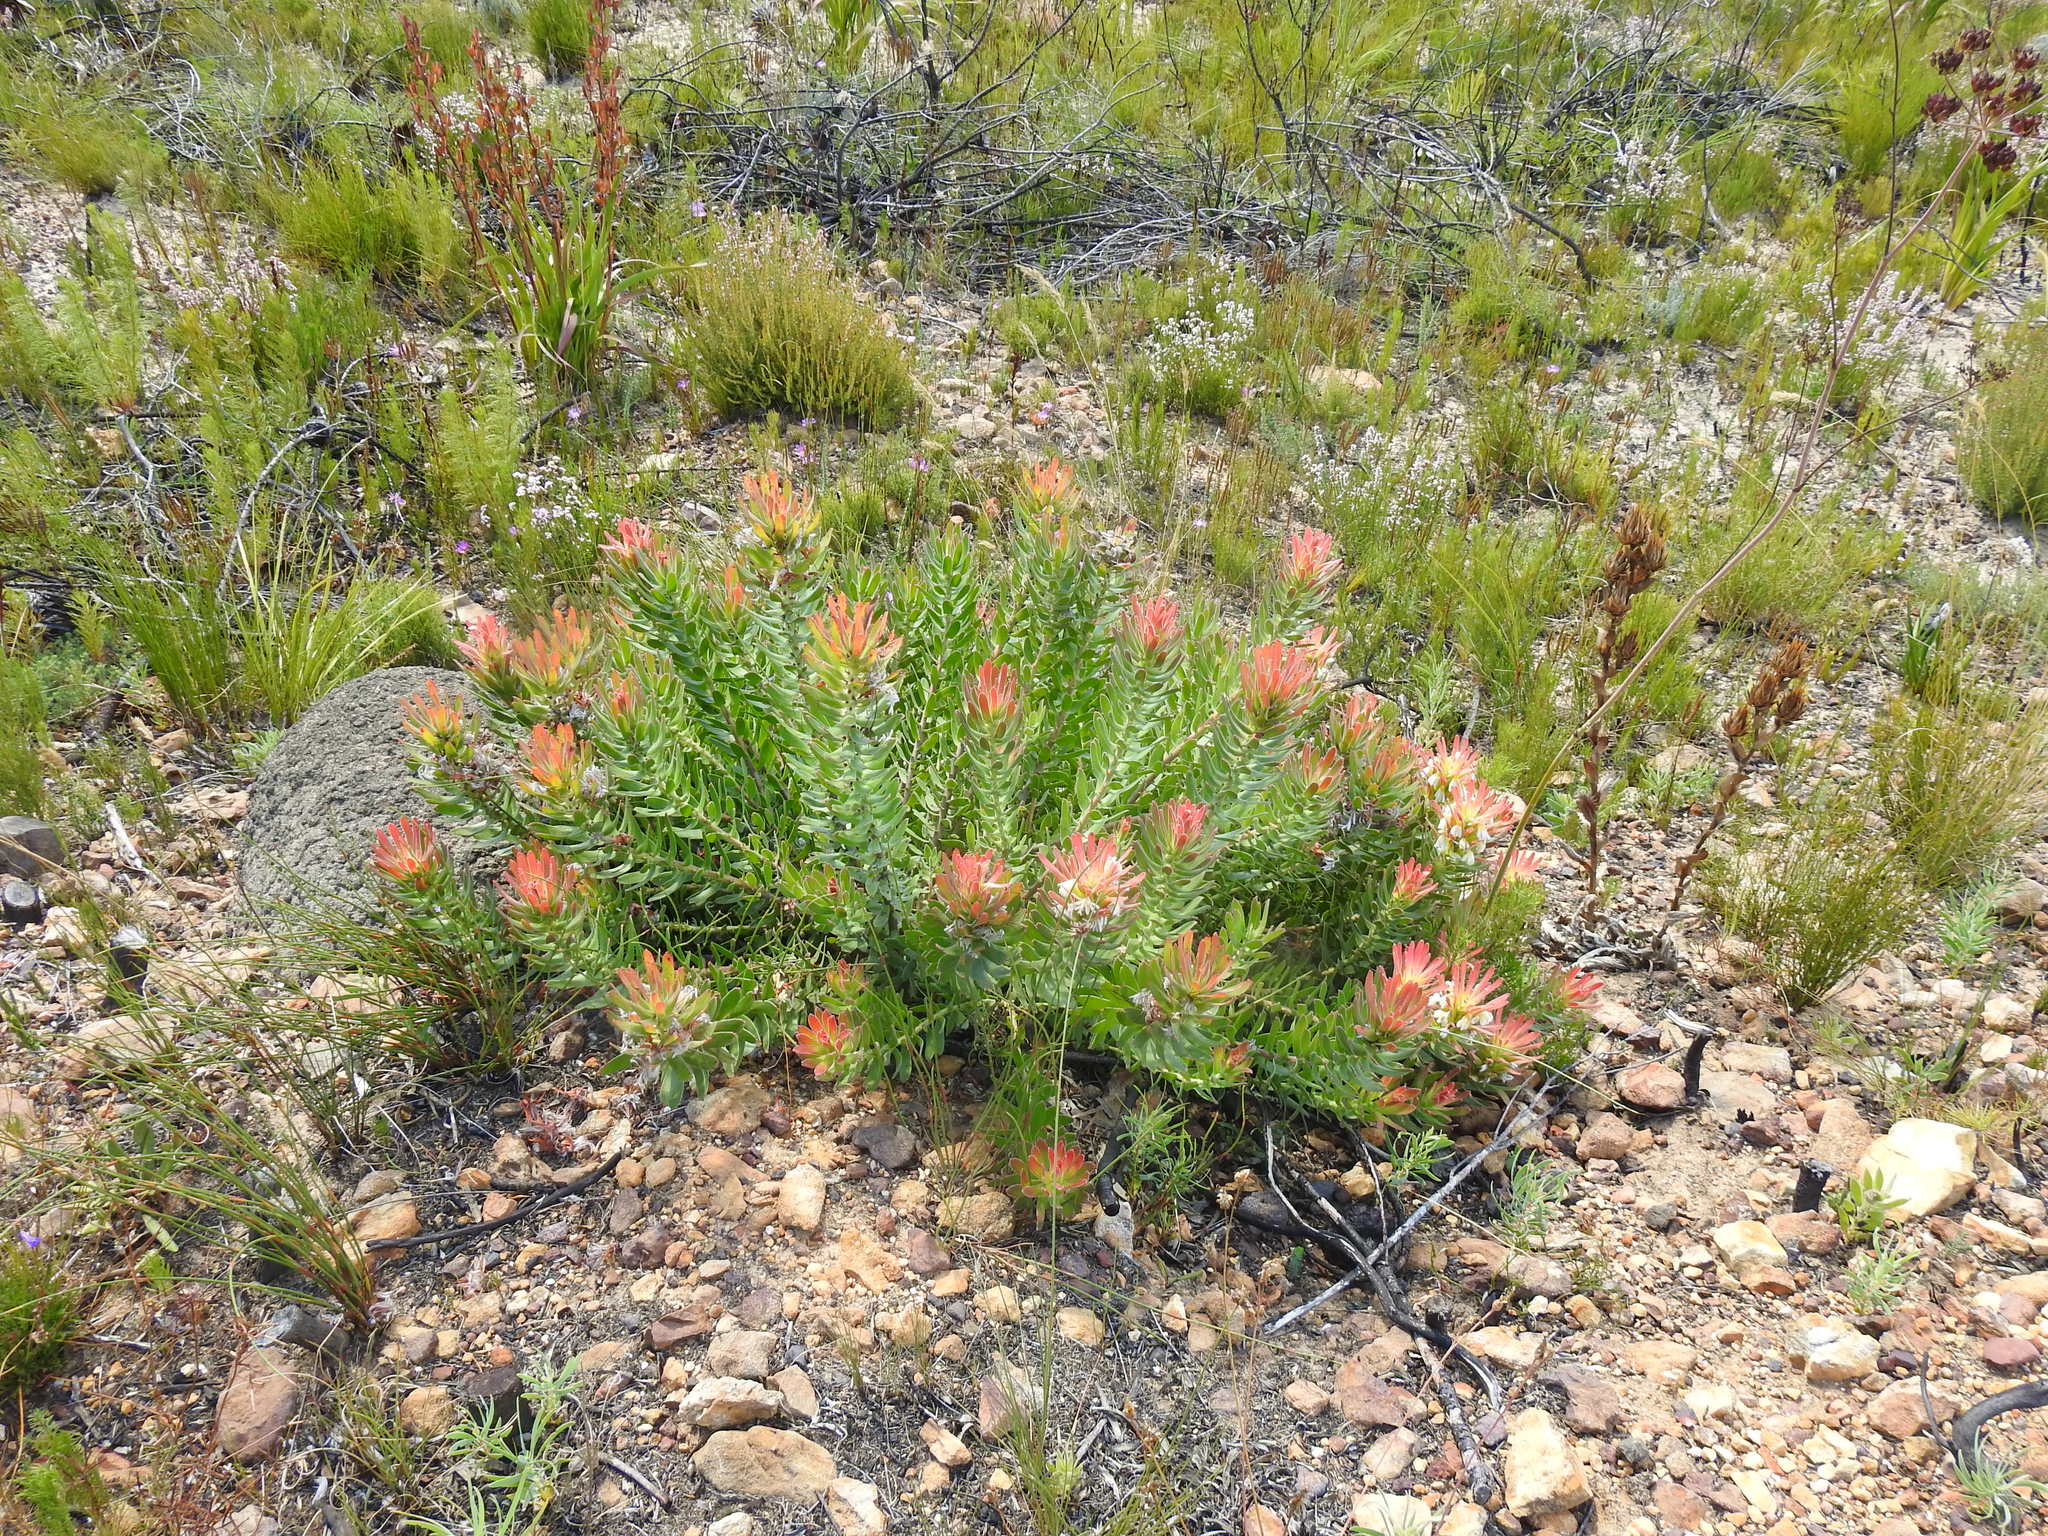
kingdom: Plantae
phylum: Tracheophyta
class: Magnoliopsida
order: Proteales
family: Proteaceae
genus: Mimetes
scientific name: Mimetes cucullatus
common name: Common pagoda
